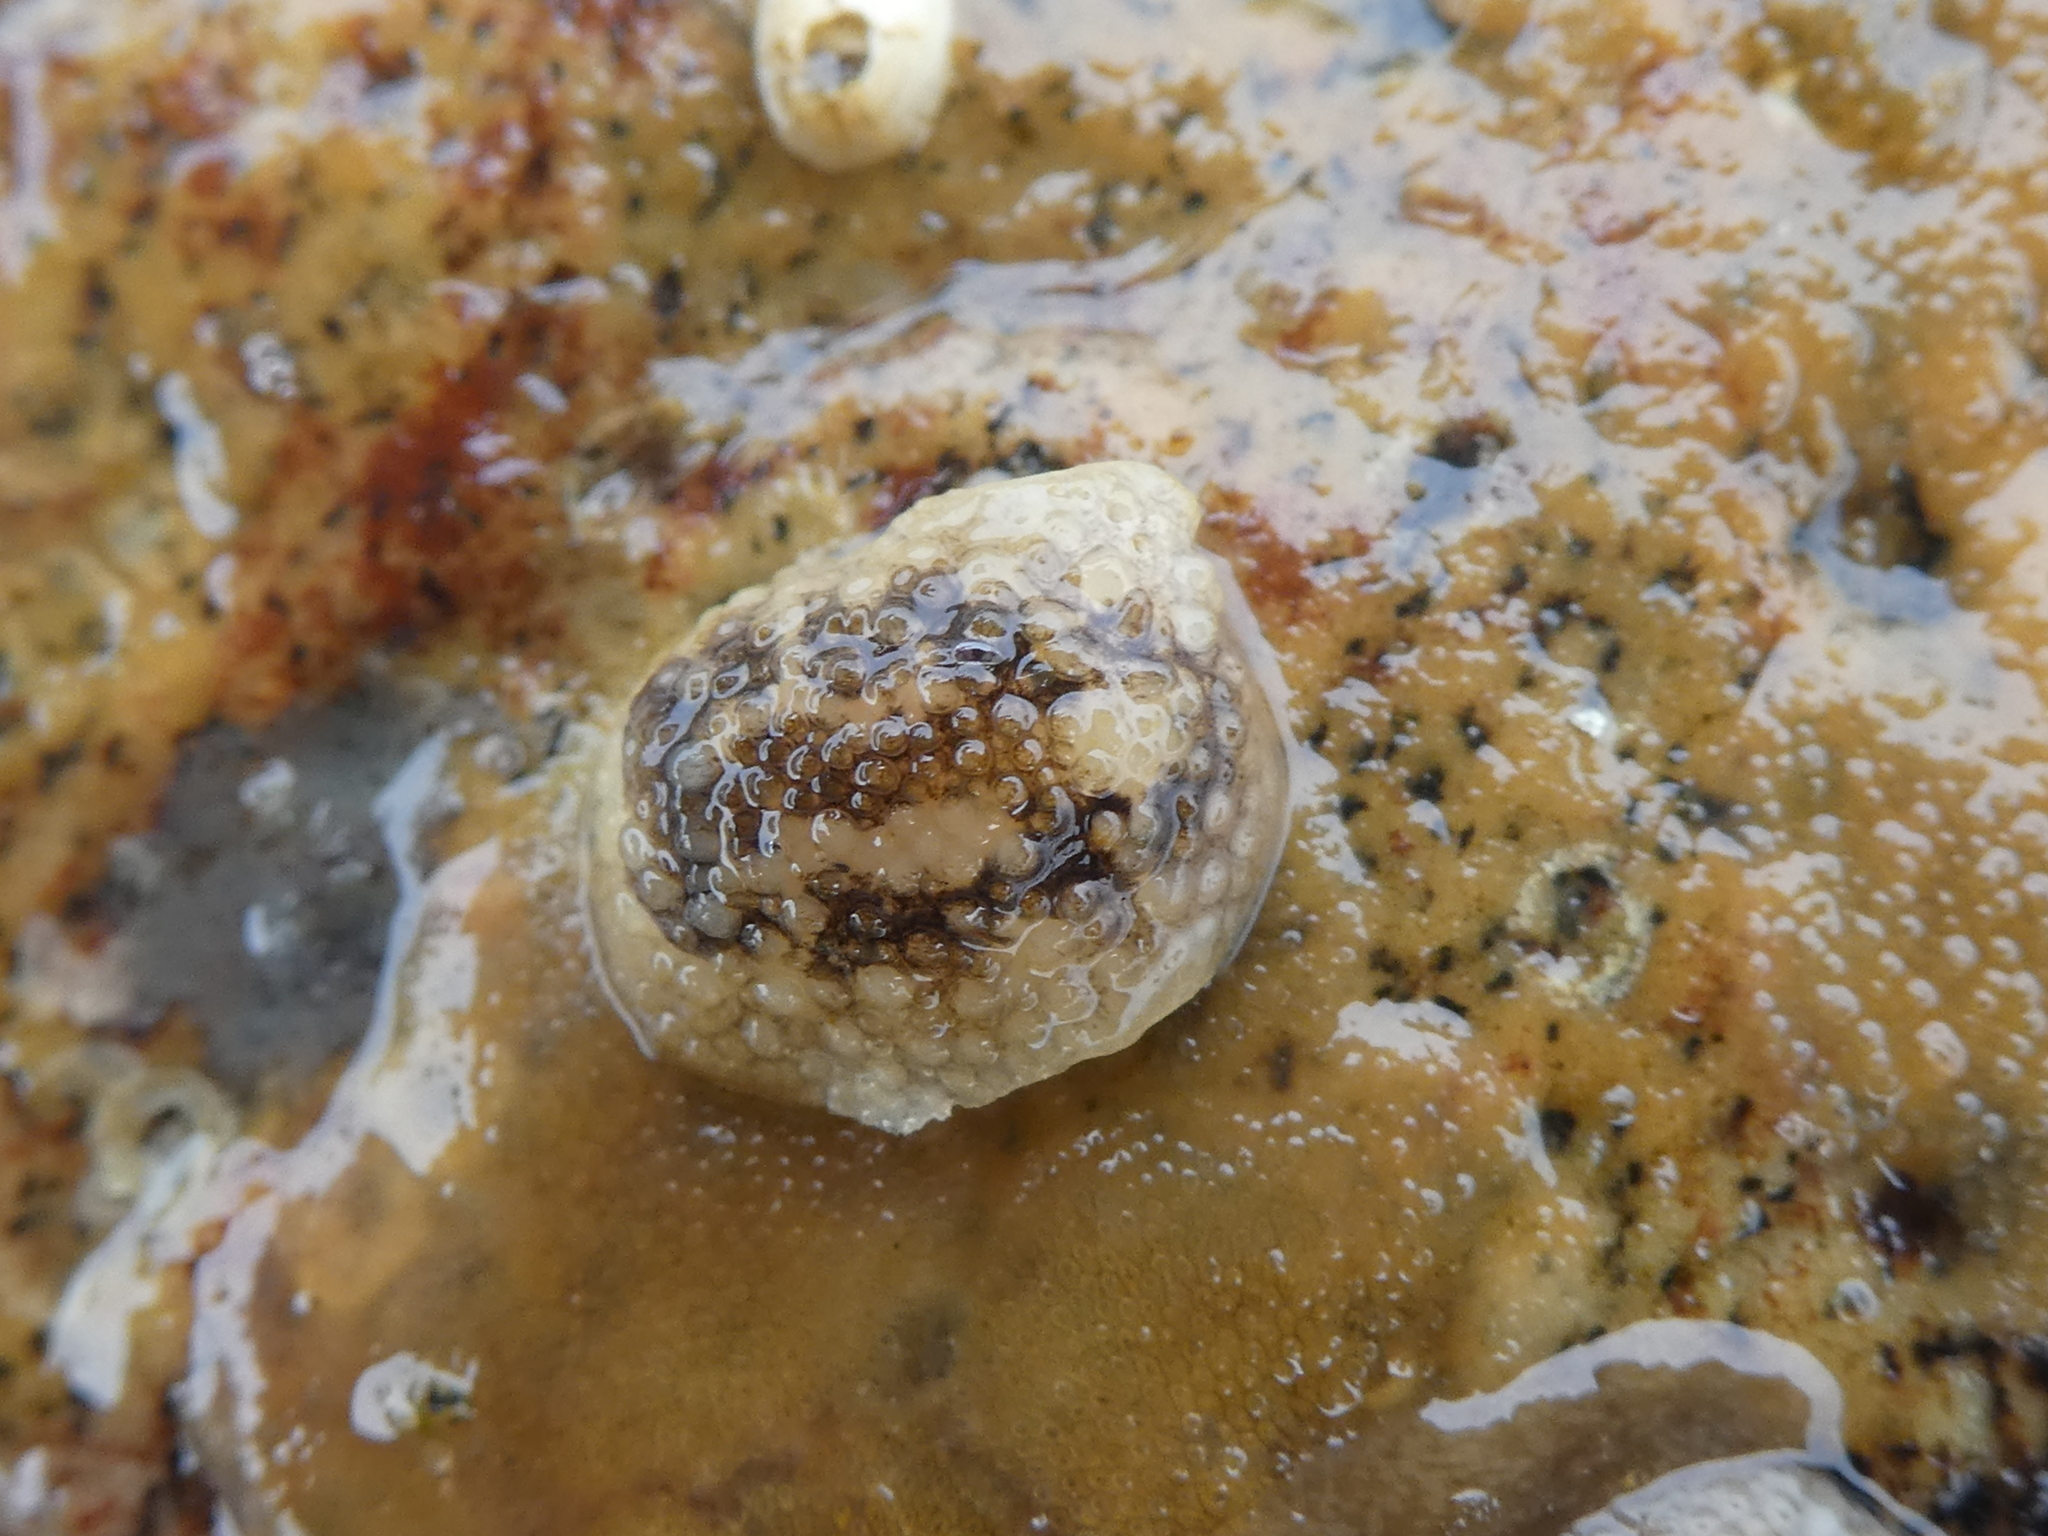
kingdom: Animalia
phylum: Mollusca
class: Gastropoda
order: Nudibranchia
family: Onchidorididae
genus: Onchidoris
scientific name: Onchidoris bilamellata
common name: Barnacle-eating onchidoris
